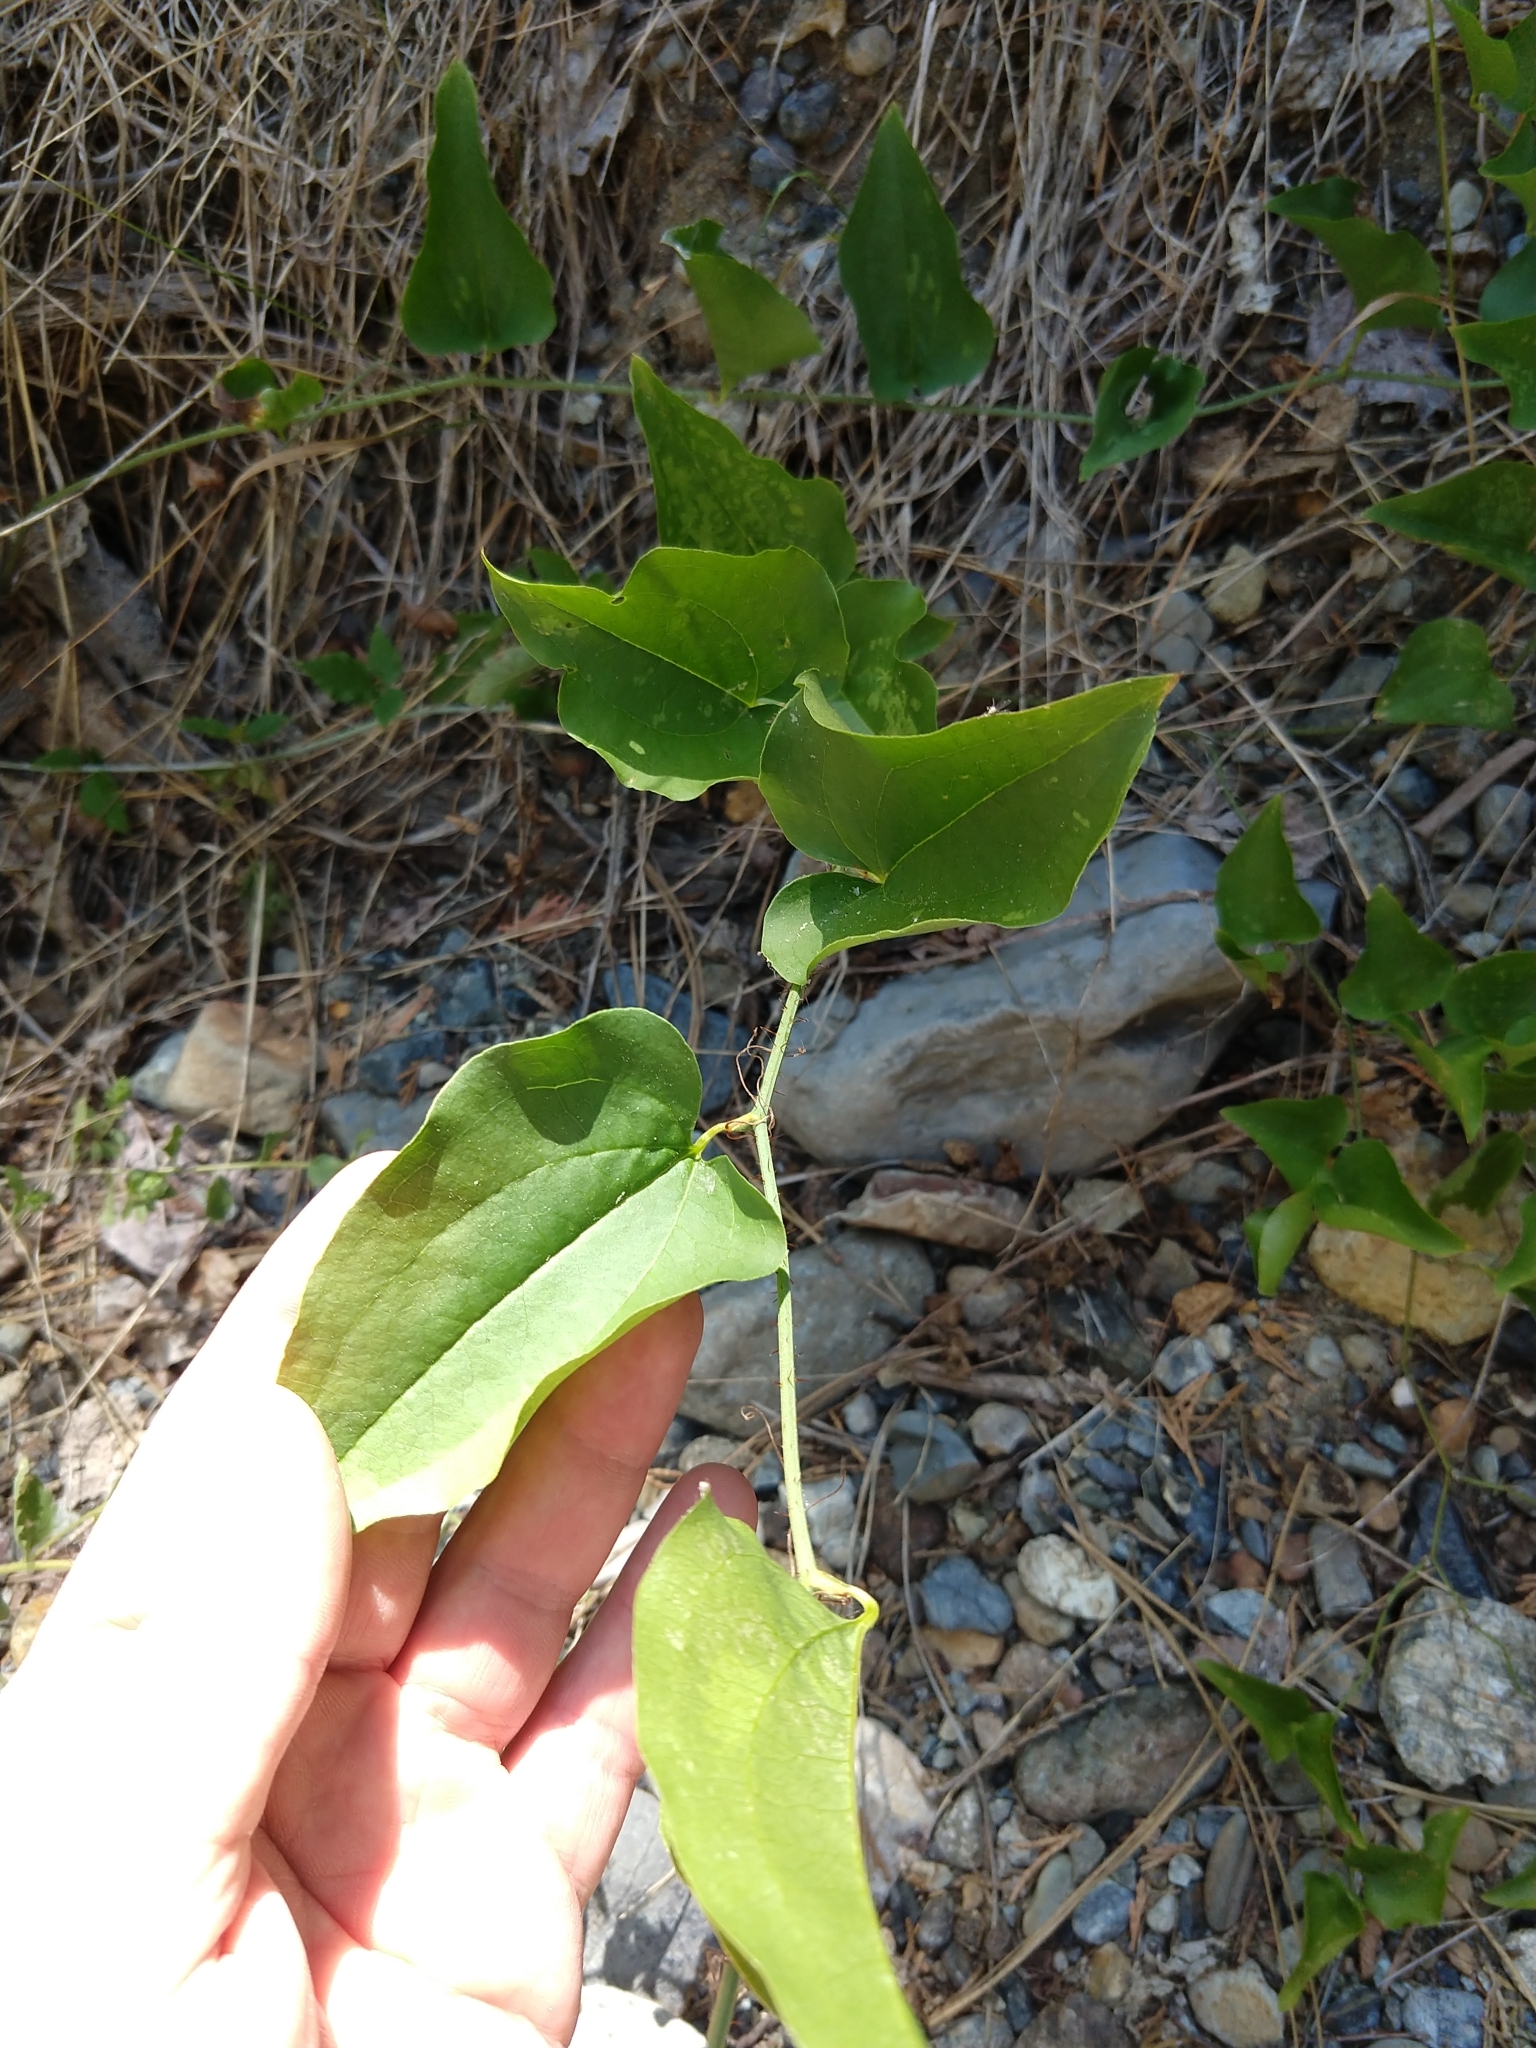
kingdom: Plantae
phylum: Tracheophyta
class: Liliopsida
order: Liliales
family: Smilacaceae
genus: Smilax
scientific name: Smilax californica
